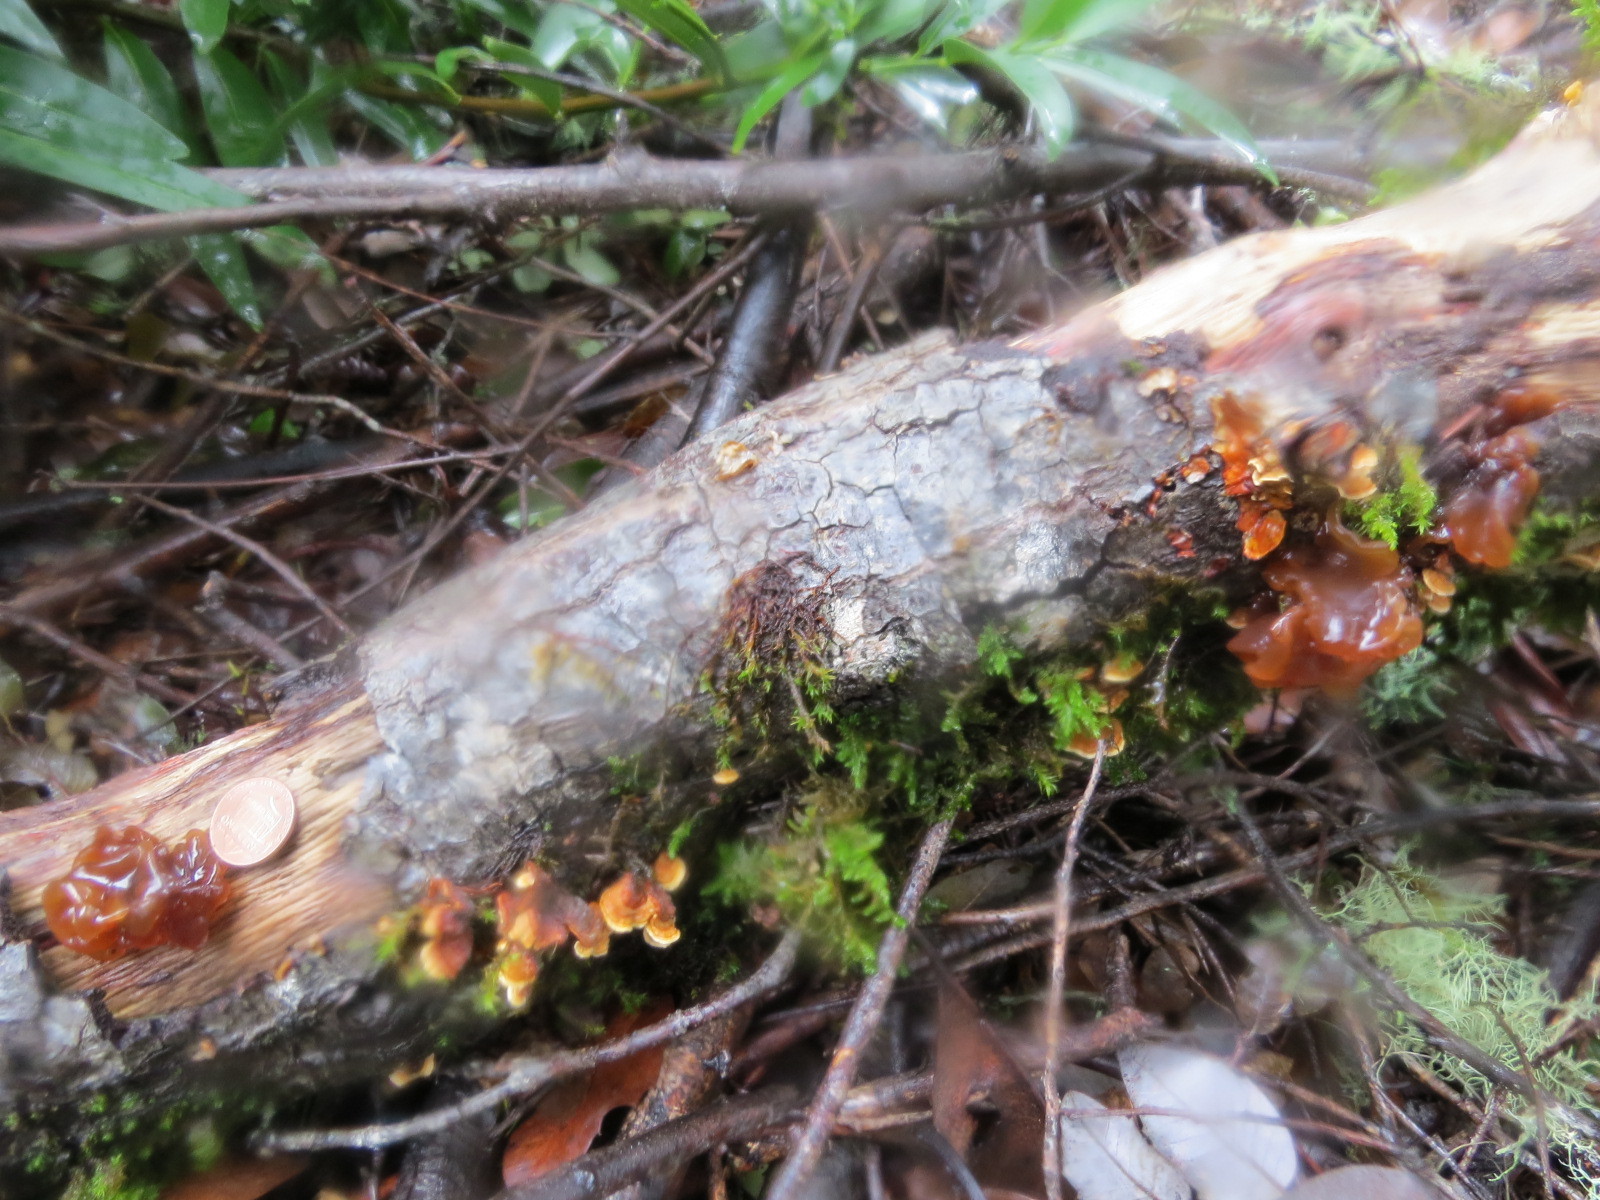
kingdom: Fungi
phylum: Basidiomycota
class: Tremellomycetes
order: Tremellales
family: Tremellaceae
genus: Phaeotremella
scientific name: Phaeotremella frondosa
